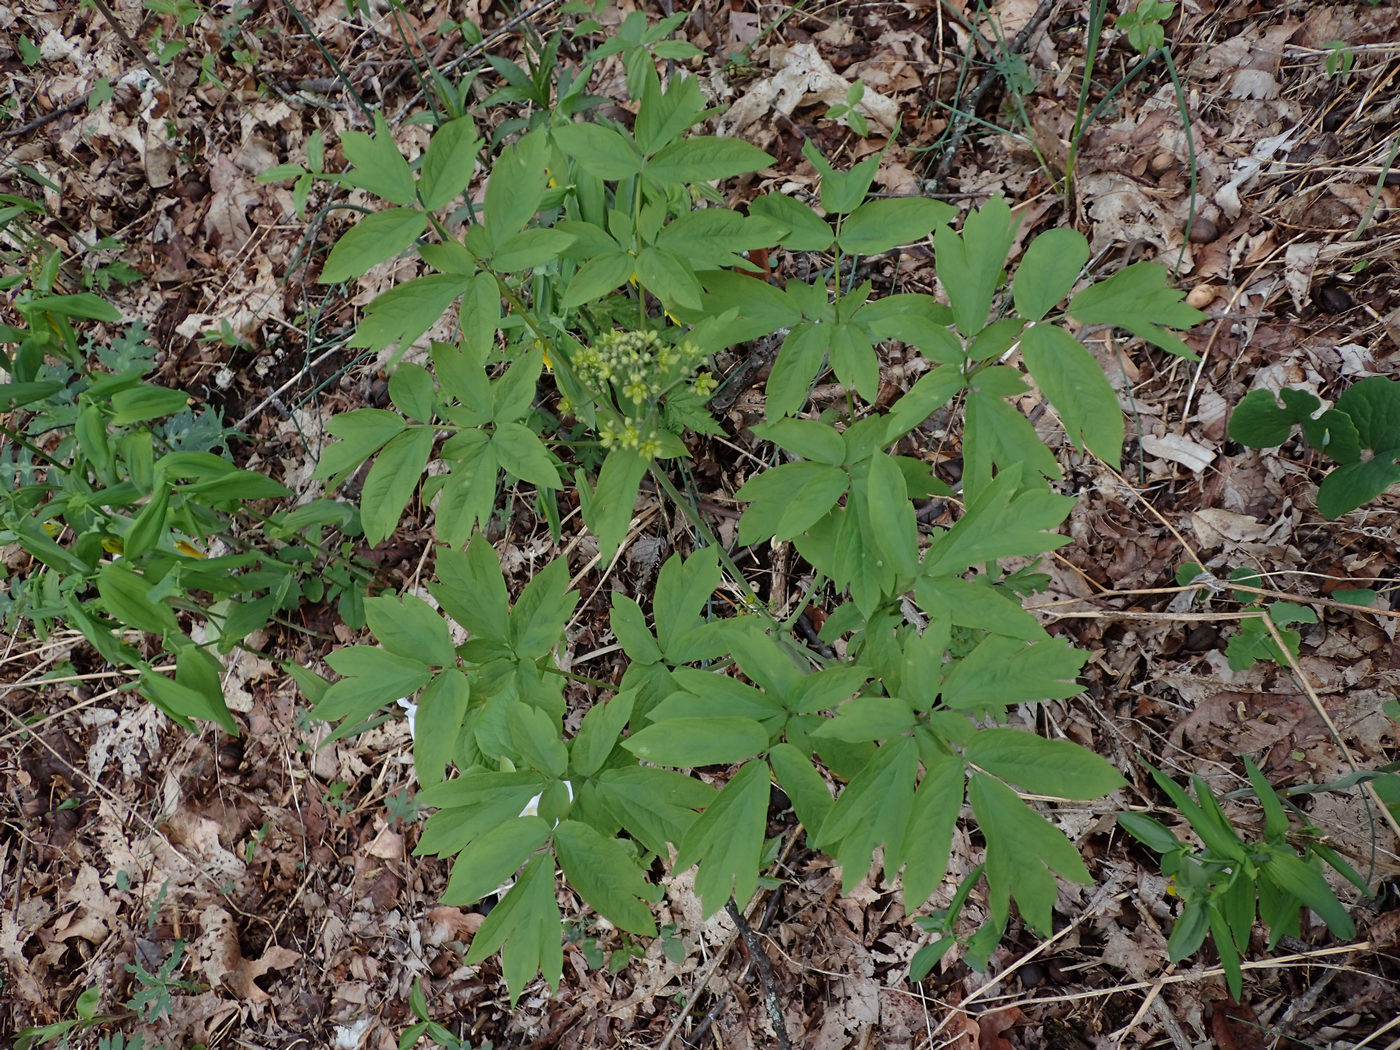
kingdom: Plantae
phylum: Tracheophyta
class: Magnoliopsida
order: Ranunculales
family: Berberidaceae
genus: Caulophyllum
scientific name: Caulophyllum thalictroides
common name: Blue cohosh
